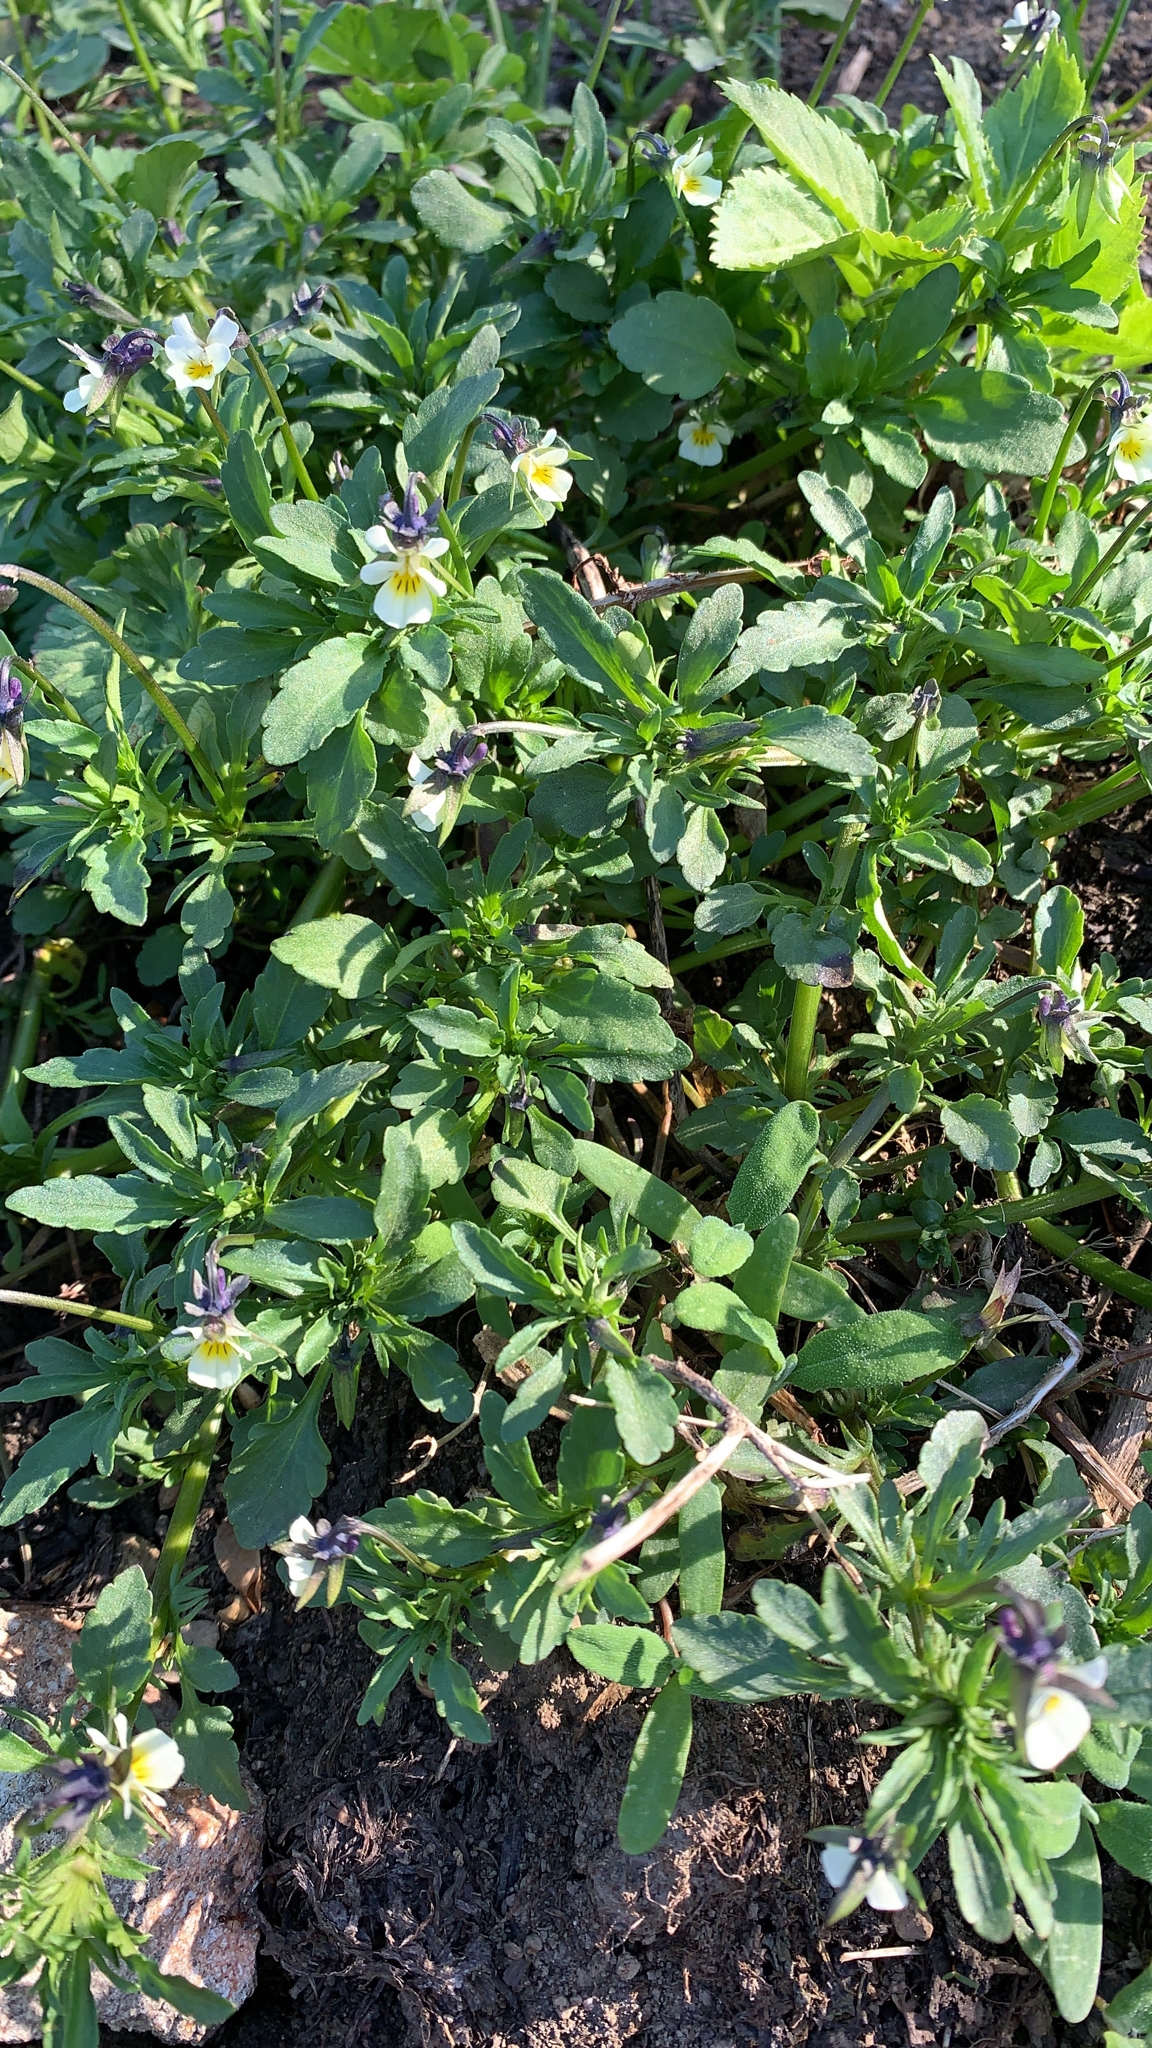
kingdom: Plantae
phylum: Tracheophyta
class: Magnoliopsida
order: Malpighiales
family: Violaceae
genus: Viola
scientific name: Viola arvensis
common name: Field pansy
